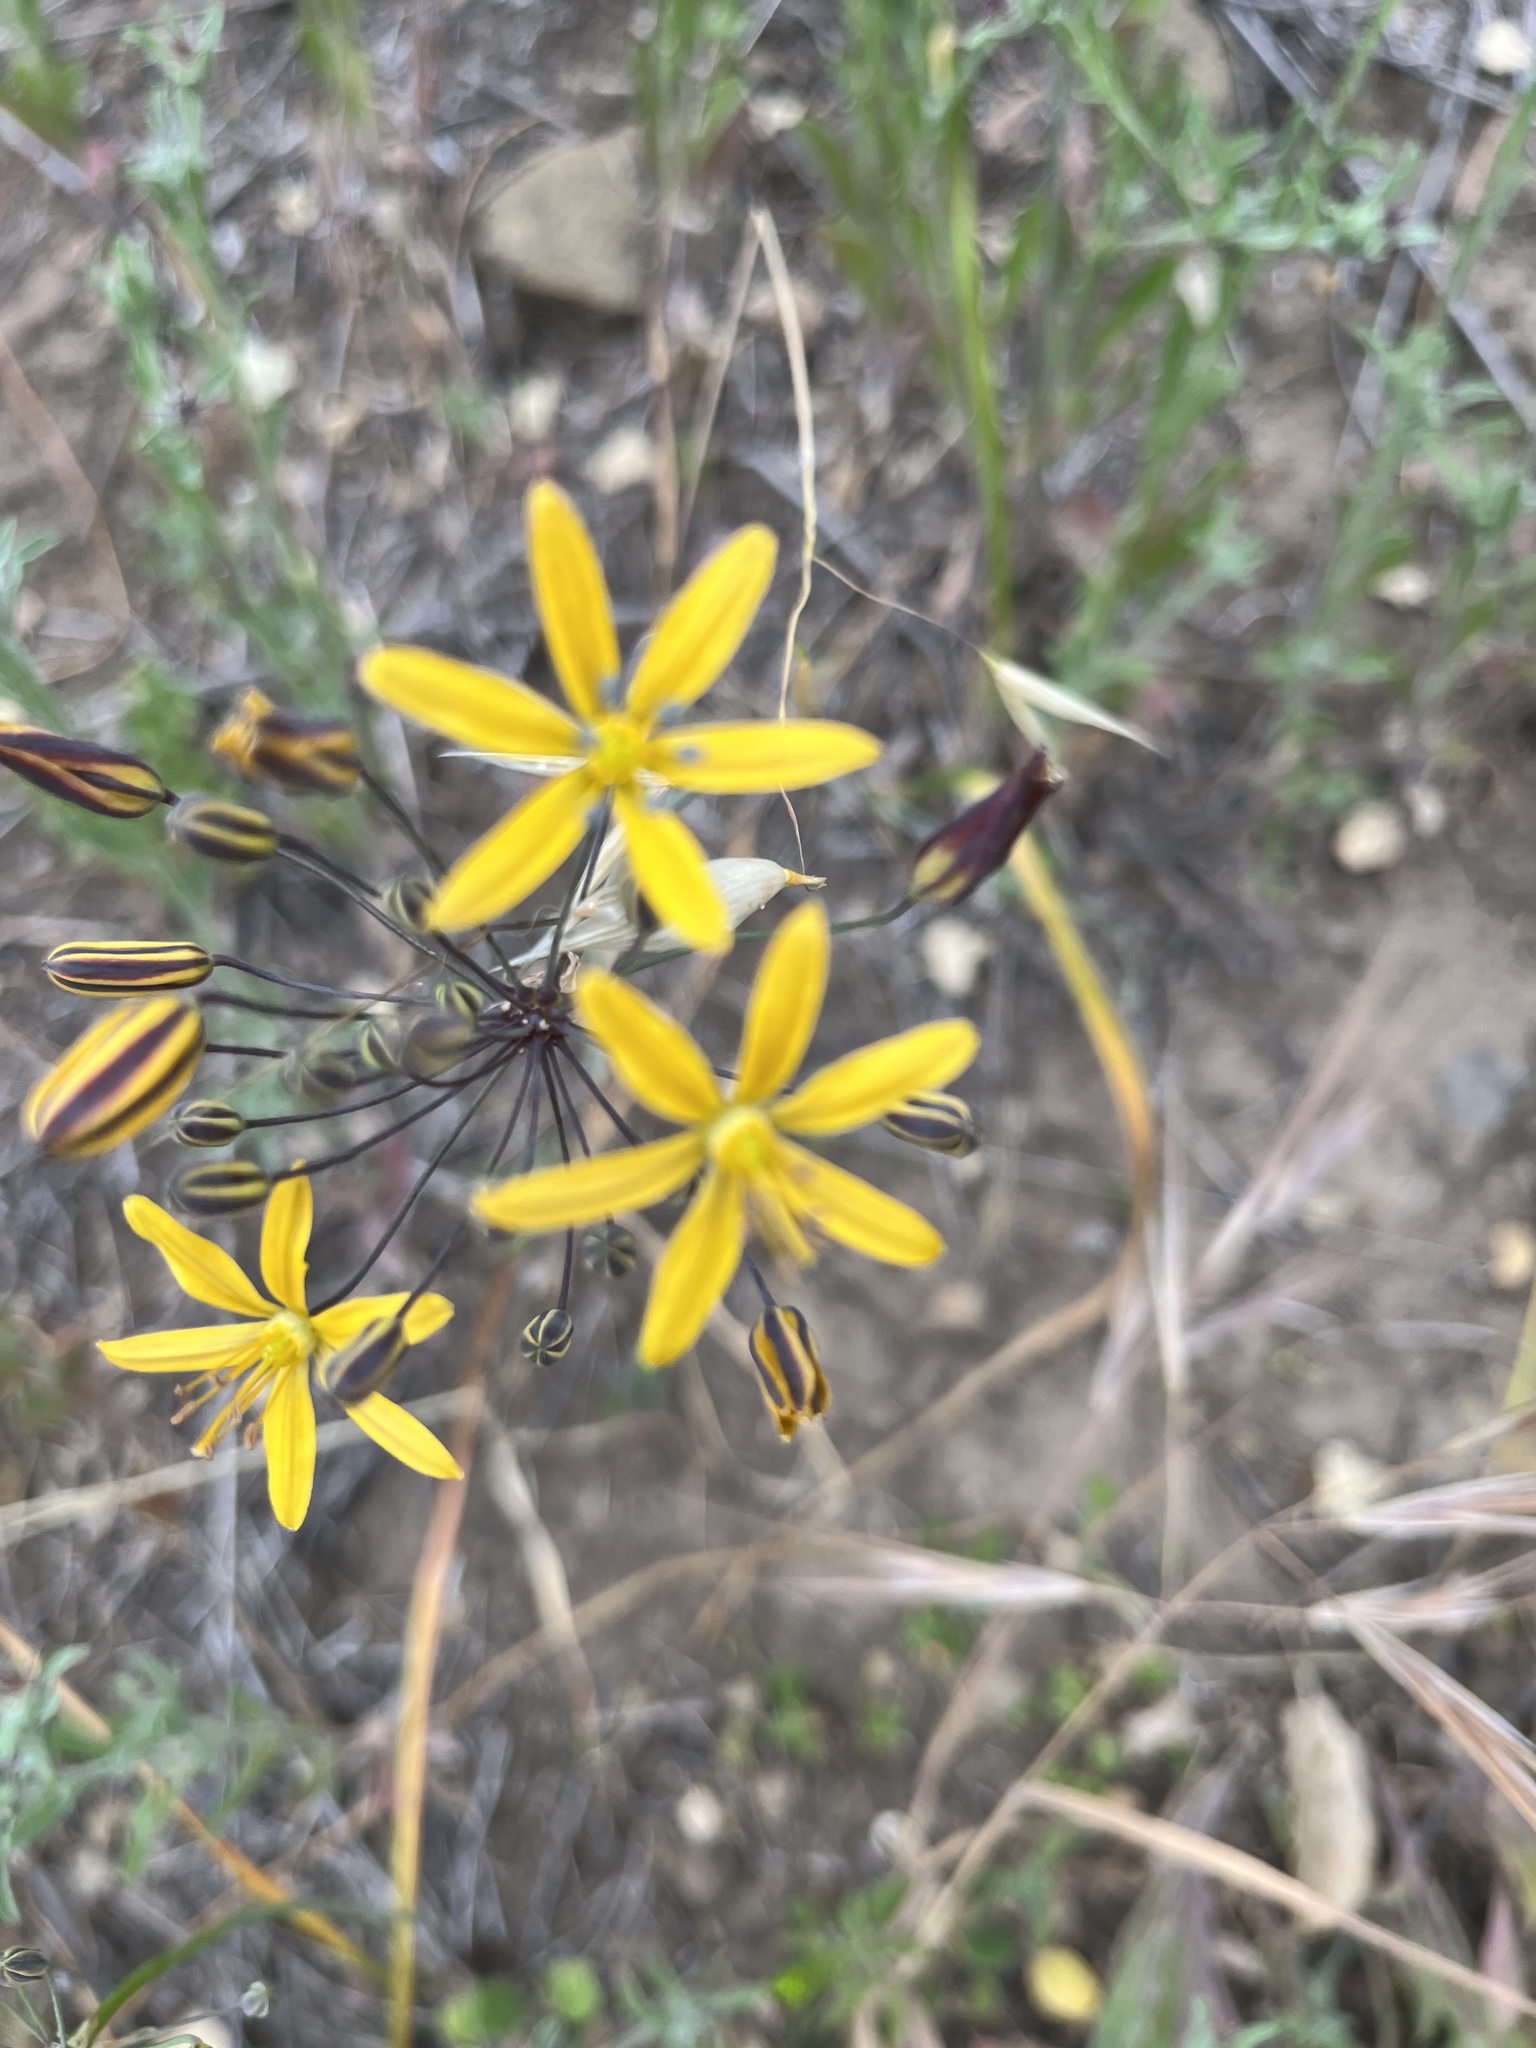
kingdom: Plantae
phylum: Tracheophyta
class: Liliopsida
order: Asparagales
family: Asparagaceae
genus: Bloomeria
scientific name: Bloomeria crocea
